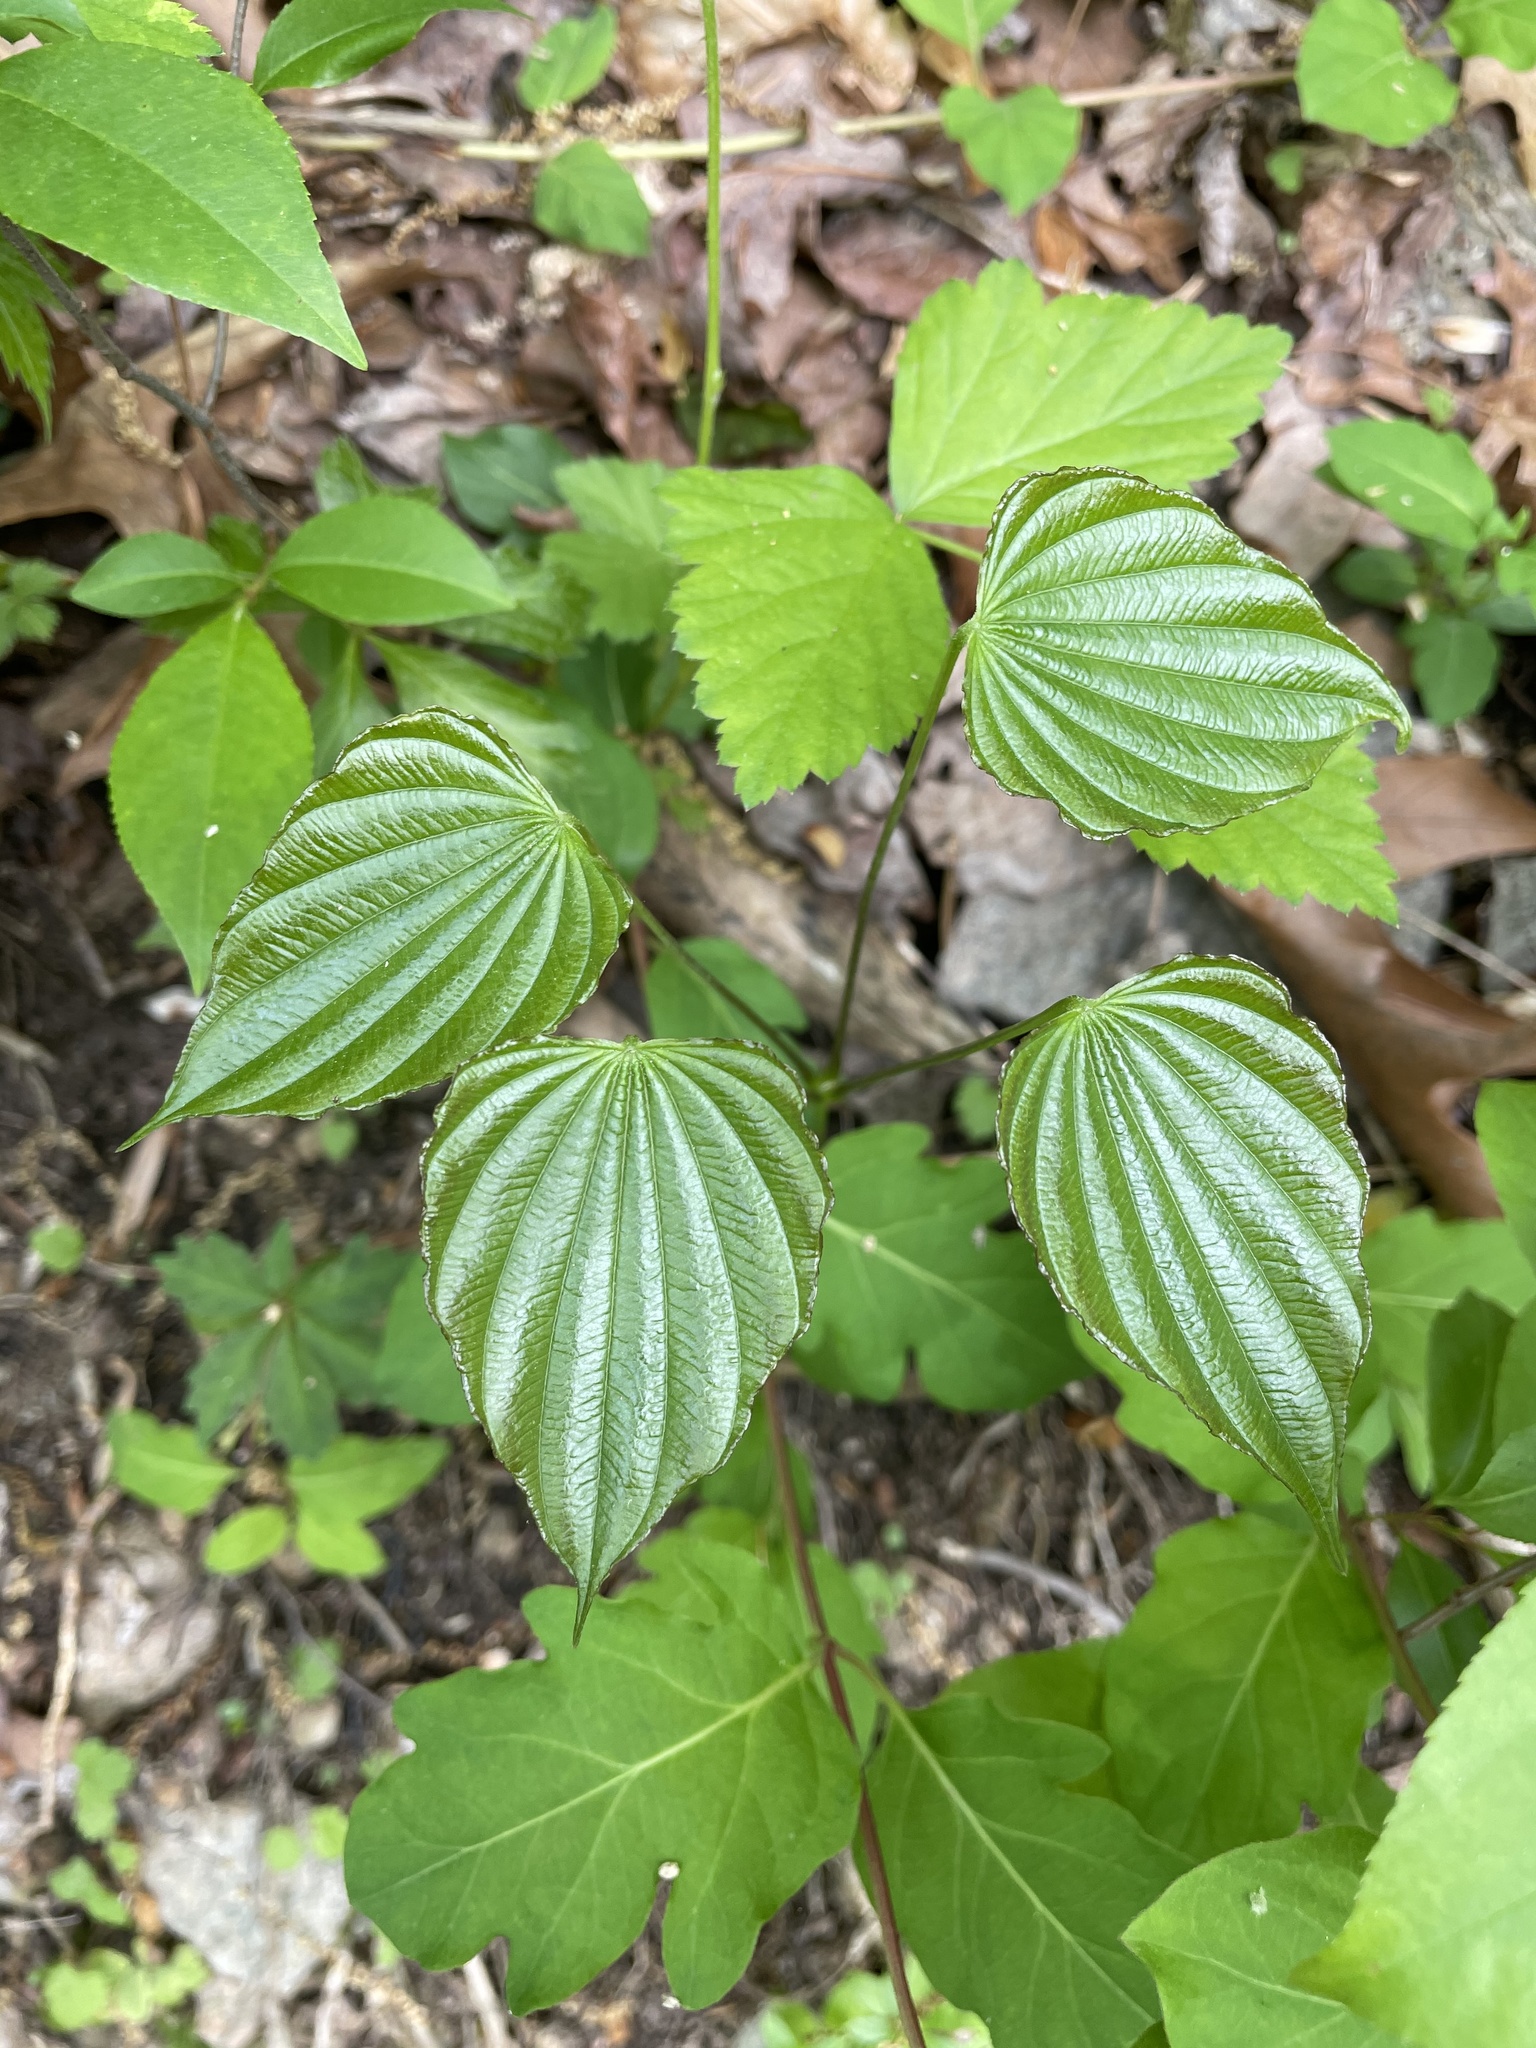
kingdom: Plantae
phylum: Tracheophyta
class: Liliopsida
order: Dioscoreales
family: Dioscoreaceae
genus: Dioscorea
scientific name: Dioscorea villosa
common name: Wild yam
